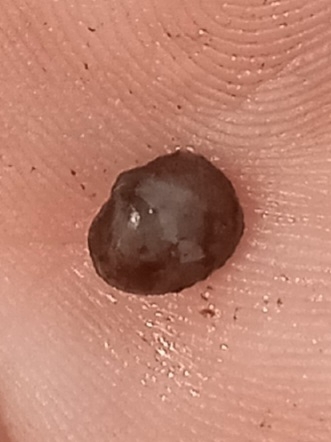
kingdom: Animalia
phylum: Mollusca
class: Bivalvia
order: Sphaeriida
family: Sphaeriidae
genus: Musculium
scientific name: Musculium securis
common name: Pond fingerclam
